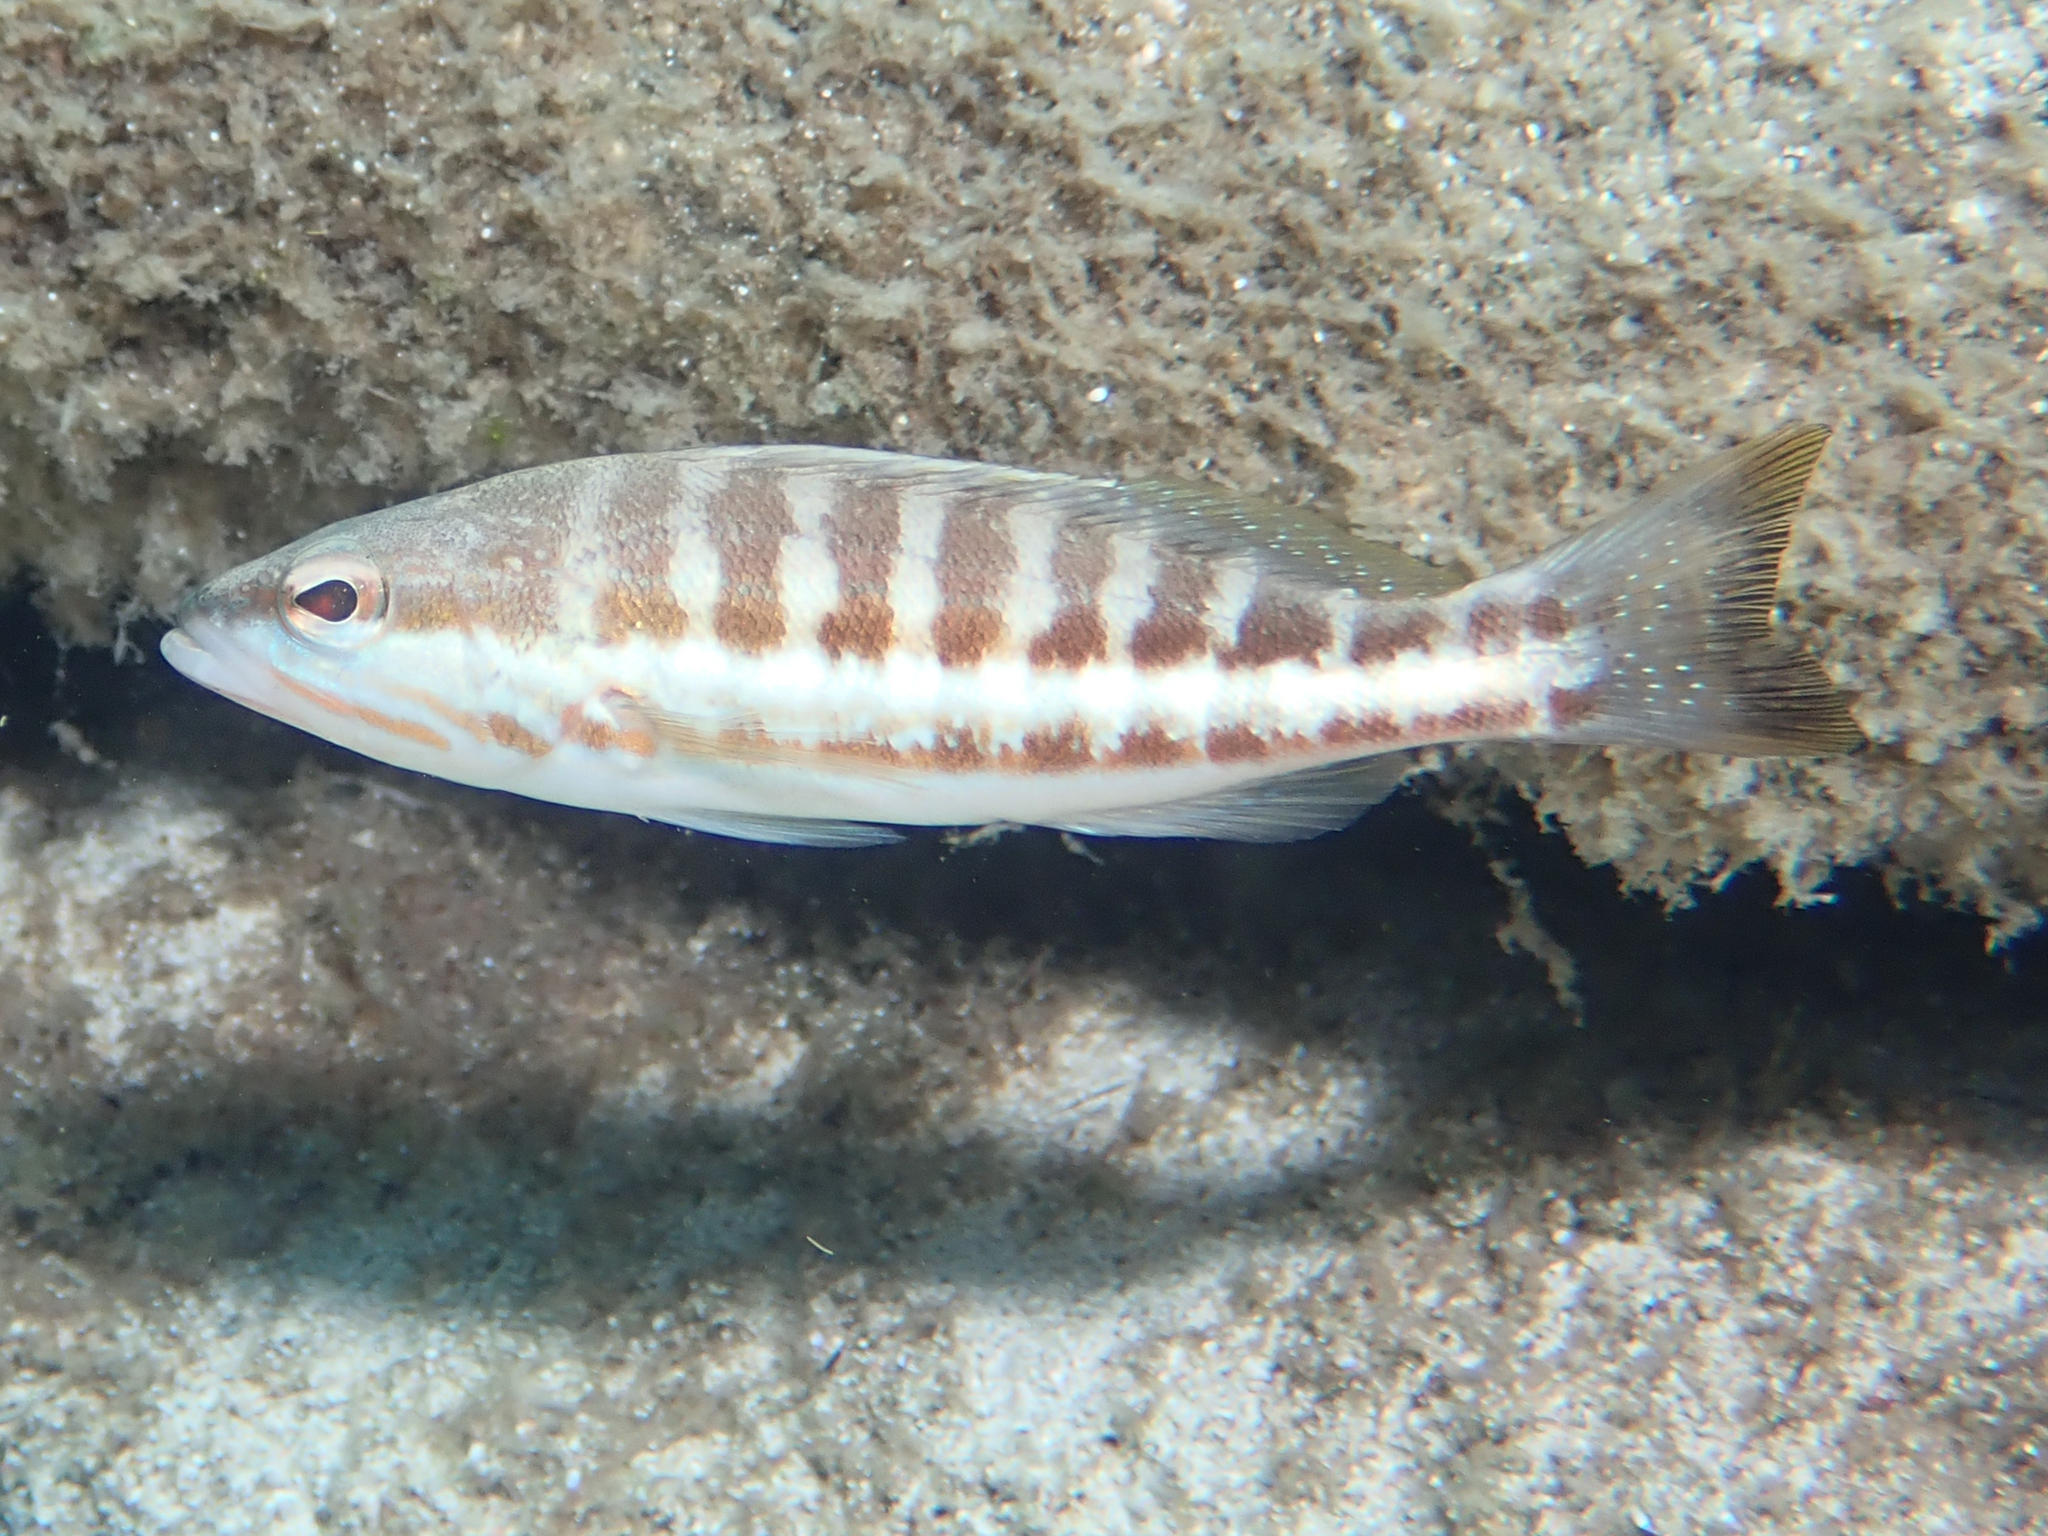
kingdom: Animalia
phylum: Chordata
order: Perciformes
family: Serranidae
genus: Serranus
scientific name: Serranus cabrilla
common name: Comber
